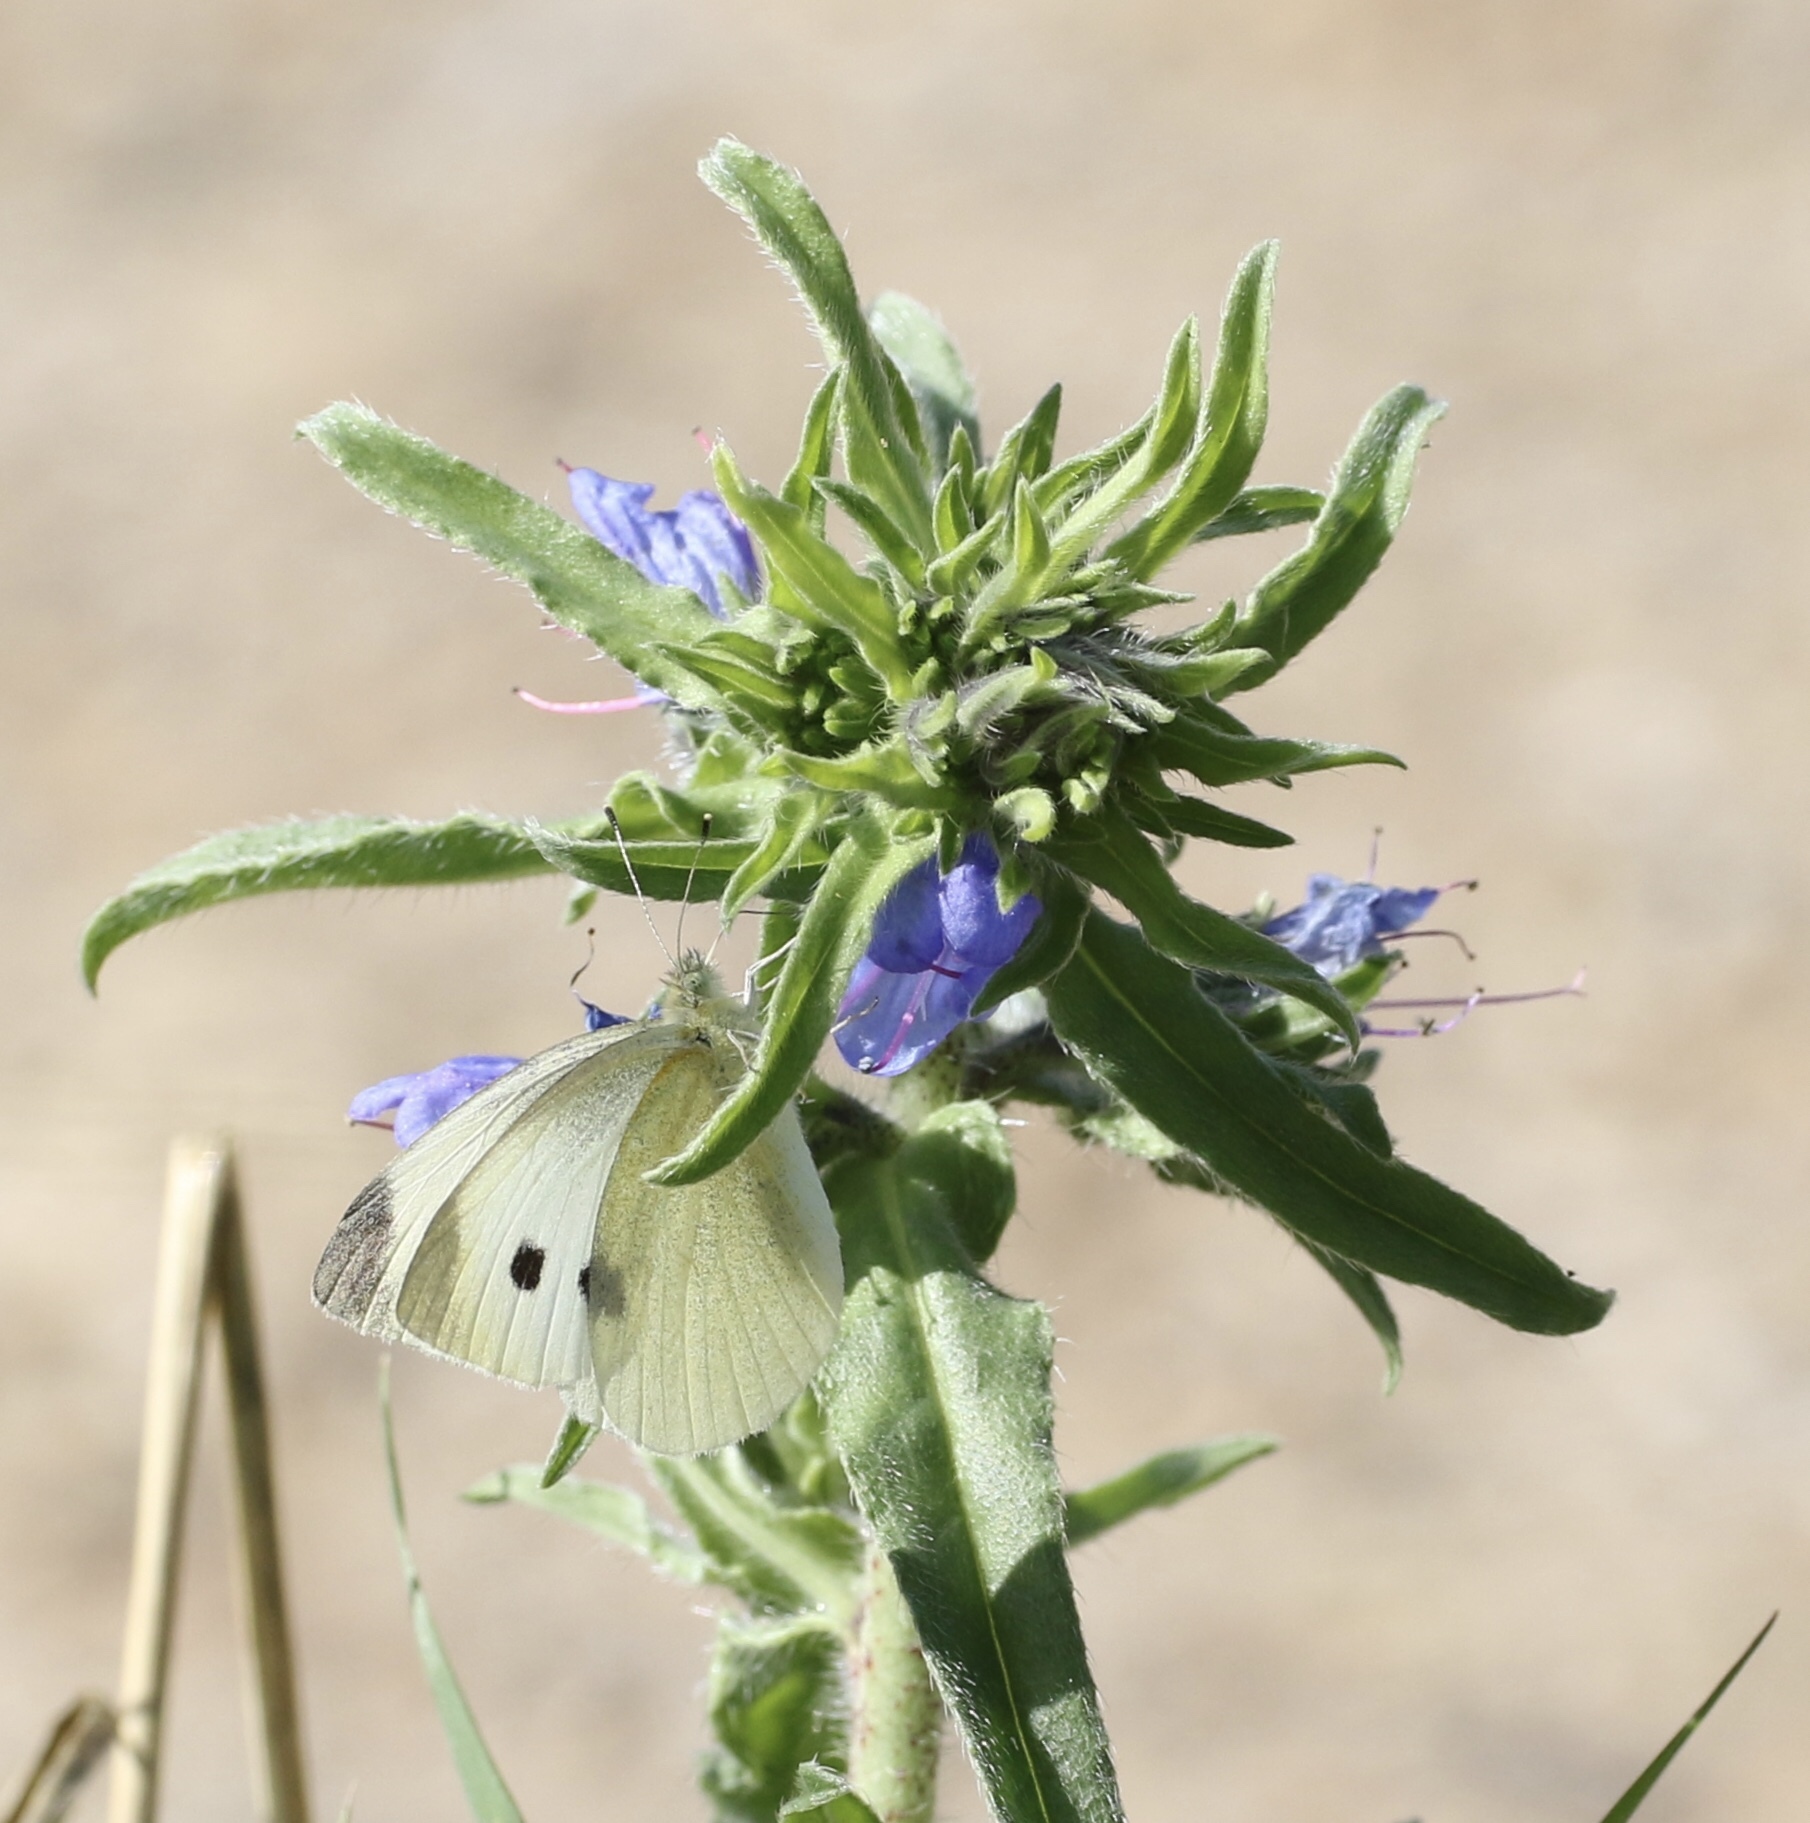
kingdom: Plantae
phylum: Tracheophyta
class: Magnoliopsida
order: Boraginales
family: Boraginaceae
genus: Echium
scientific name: Echium vulgare
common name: Common viper's bugloss
